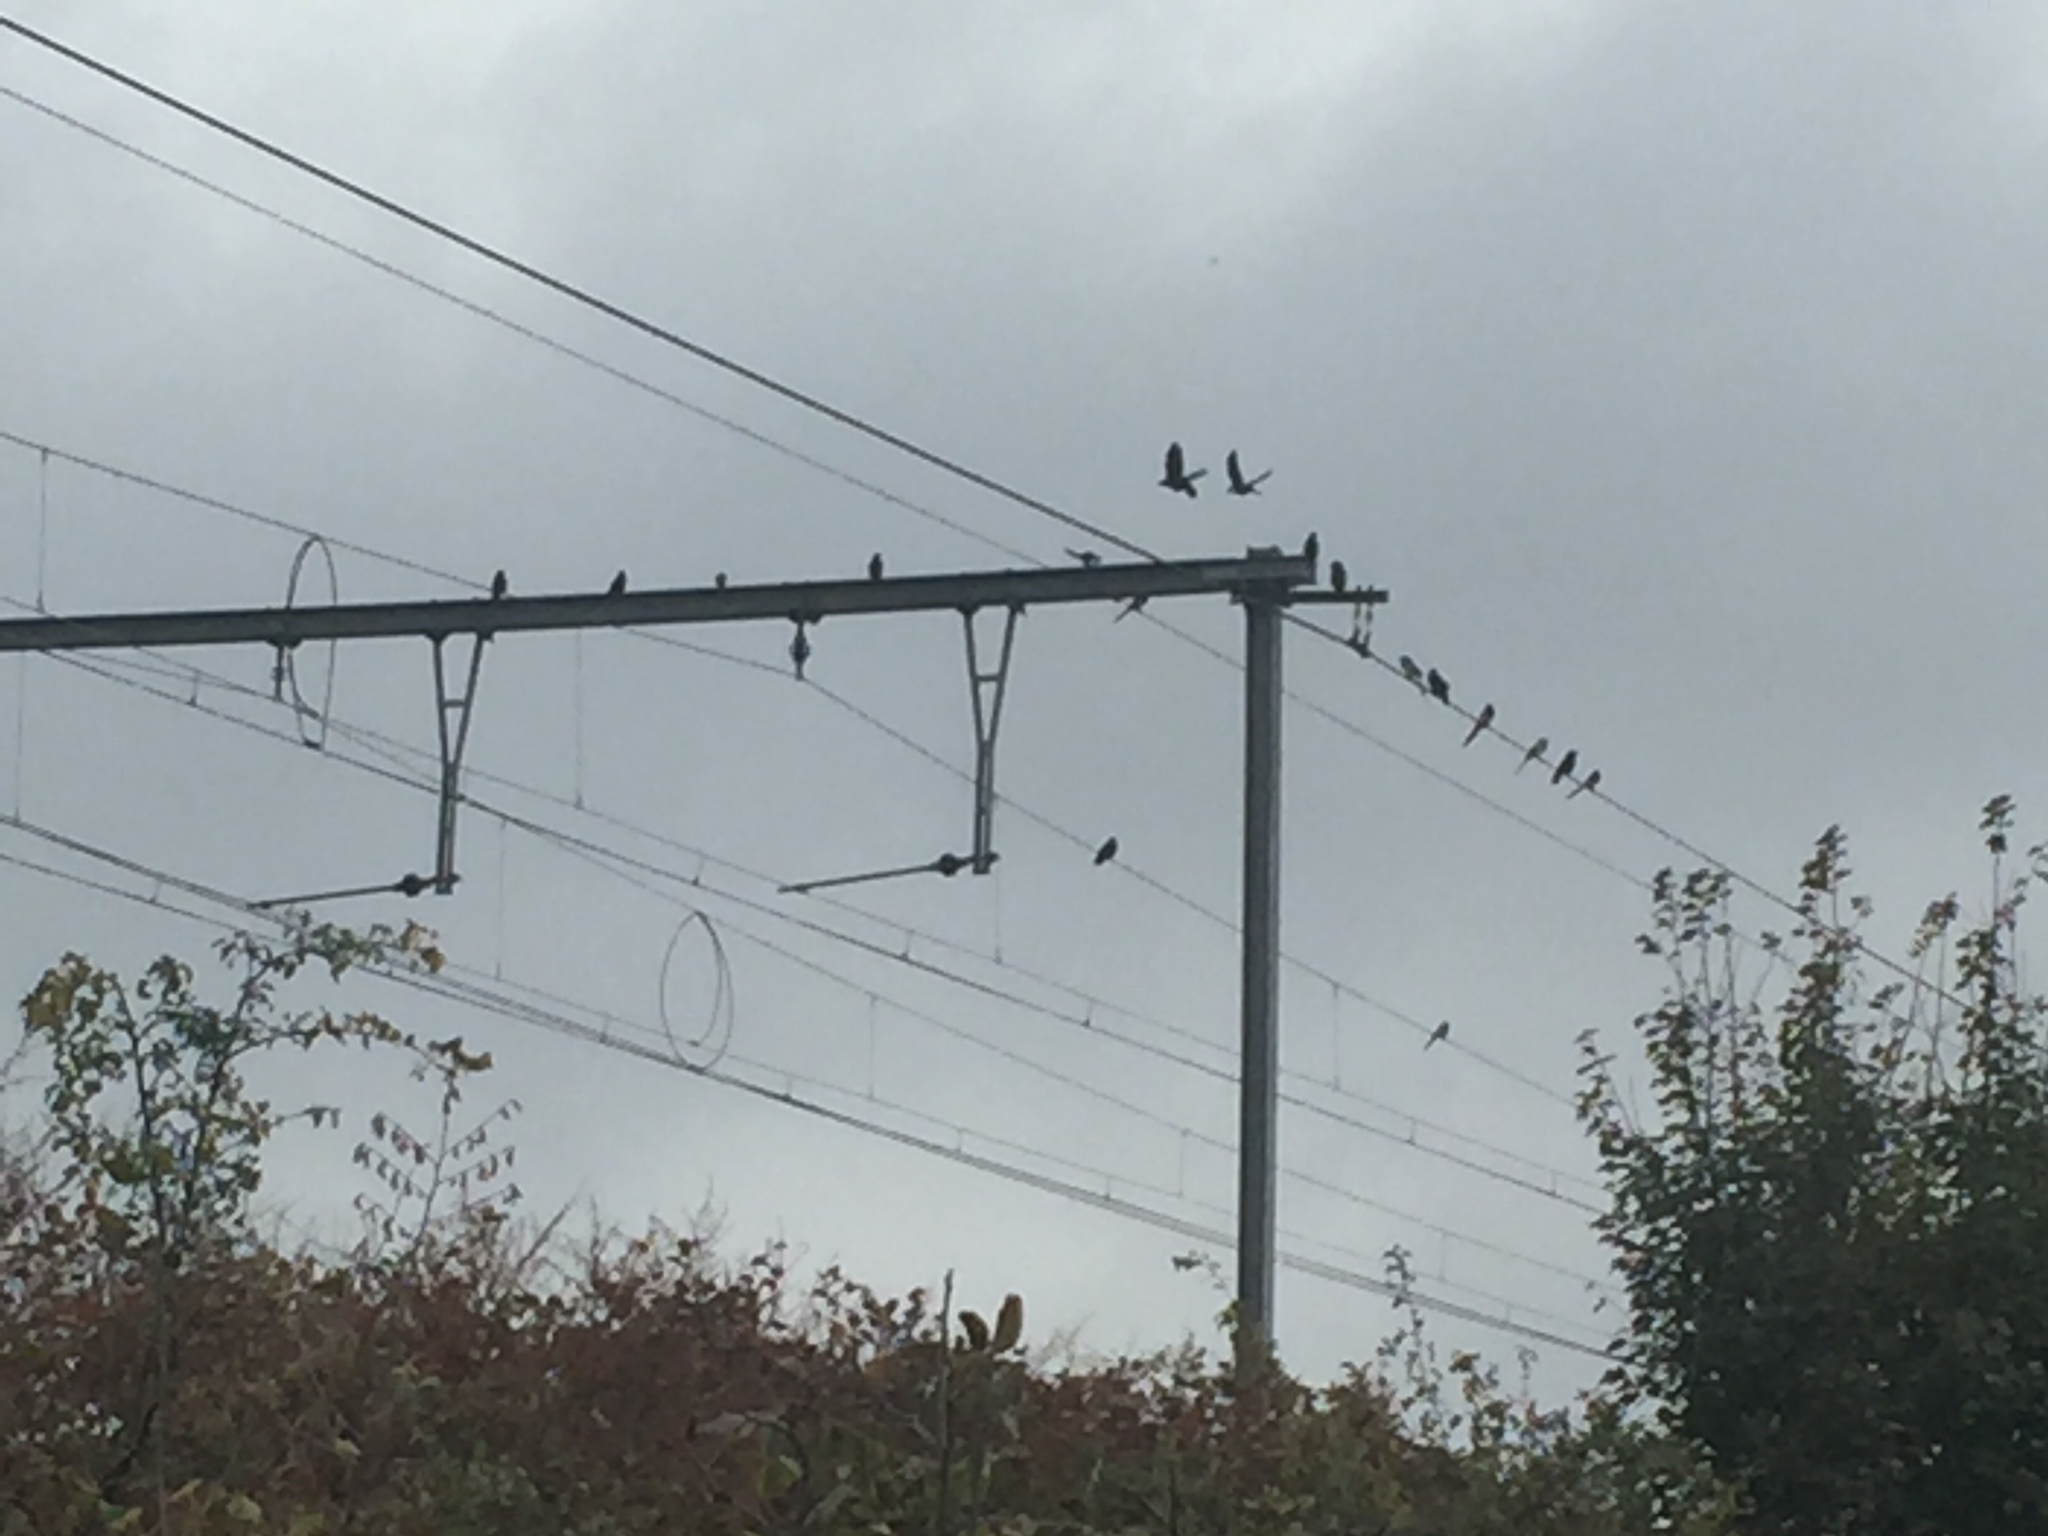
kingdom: Animalia
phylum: Chordata
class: Aves
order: Passeriformes
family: Corvidae
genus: Pica
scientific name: Pica pica
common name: Eurasian magpie
